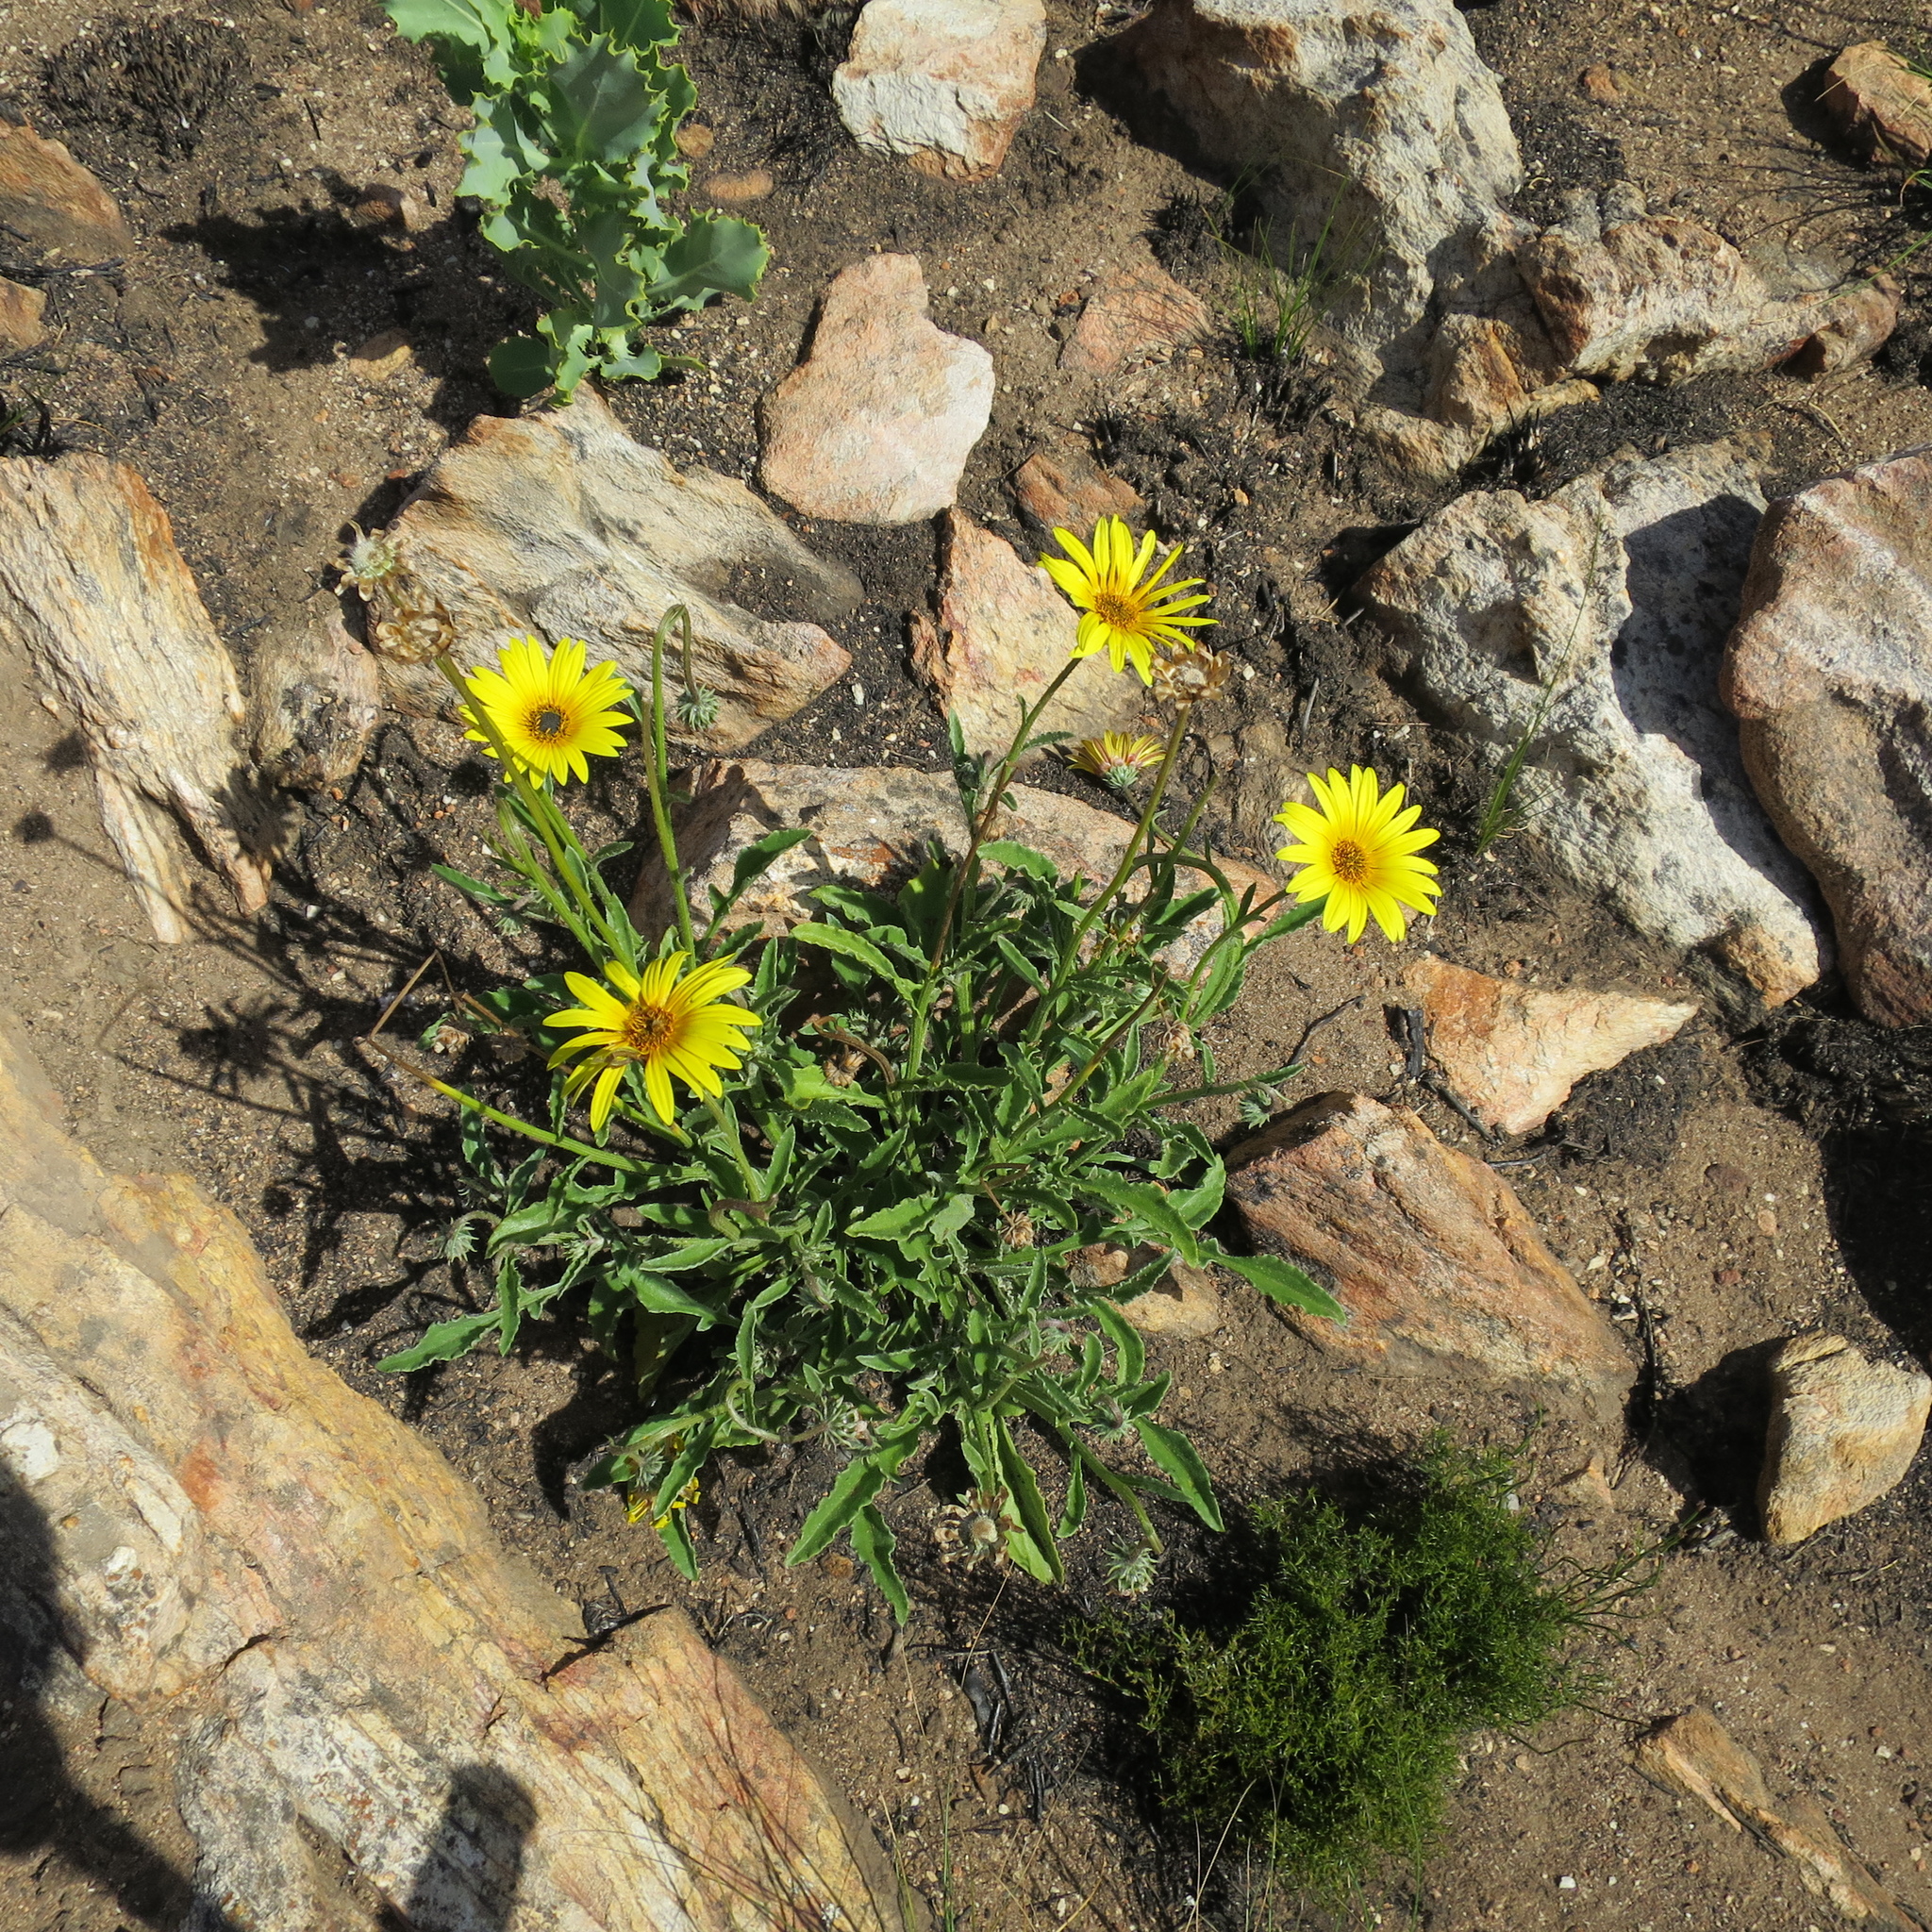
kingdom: Plantae
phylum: Tracheophyta
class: Magnoliopsida
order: Asterales
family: Asteraceae
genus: Arctotis
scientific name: Arctotis lanceolata
